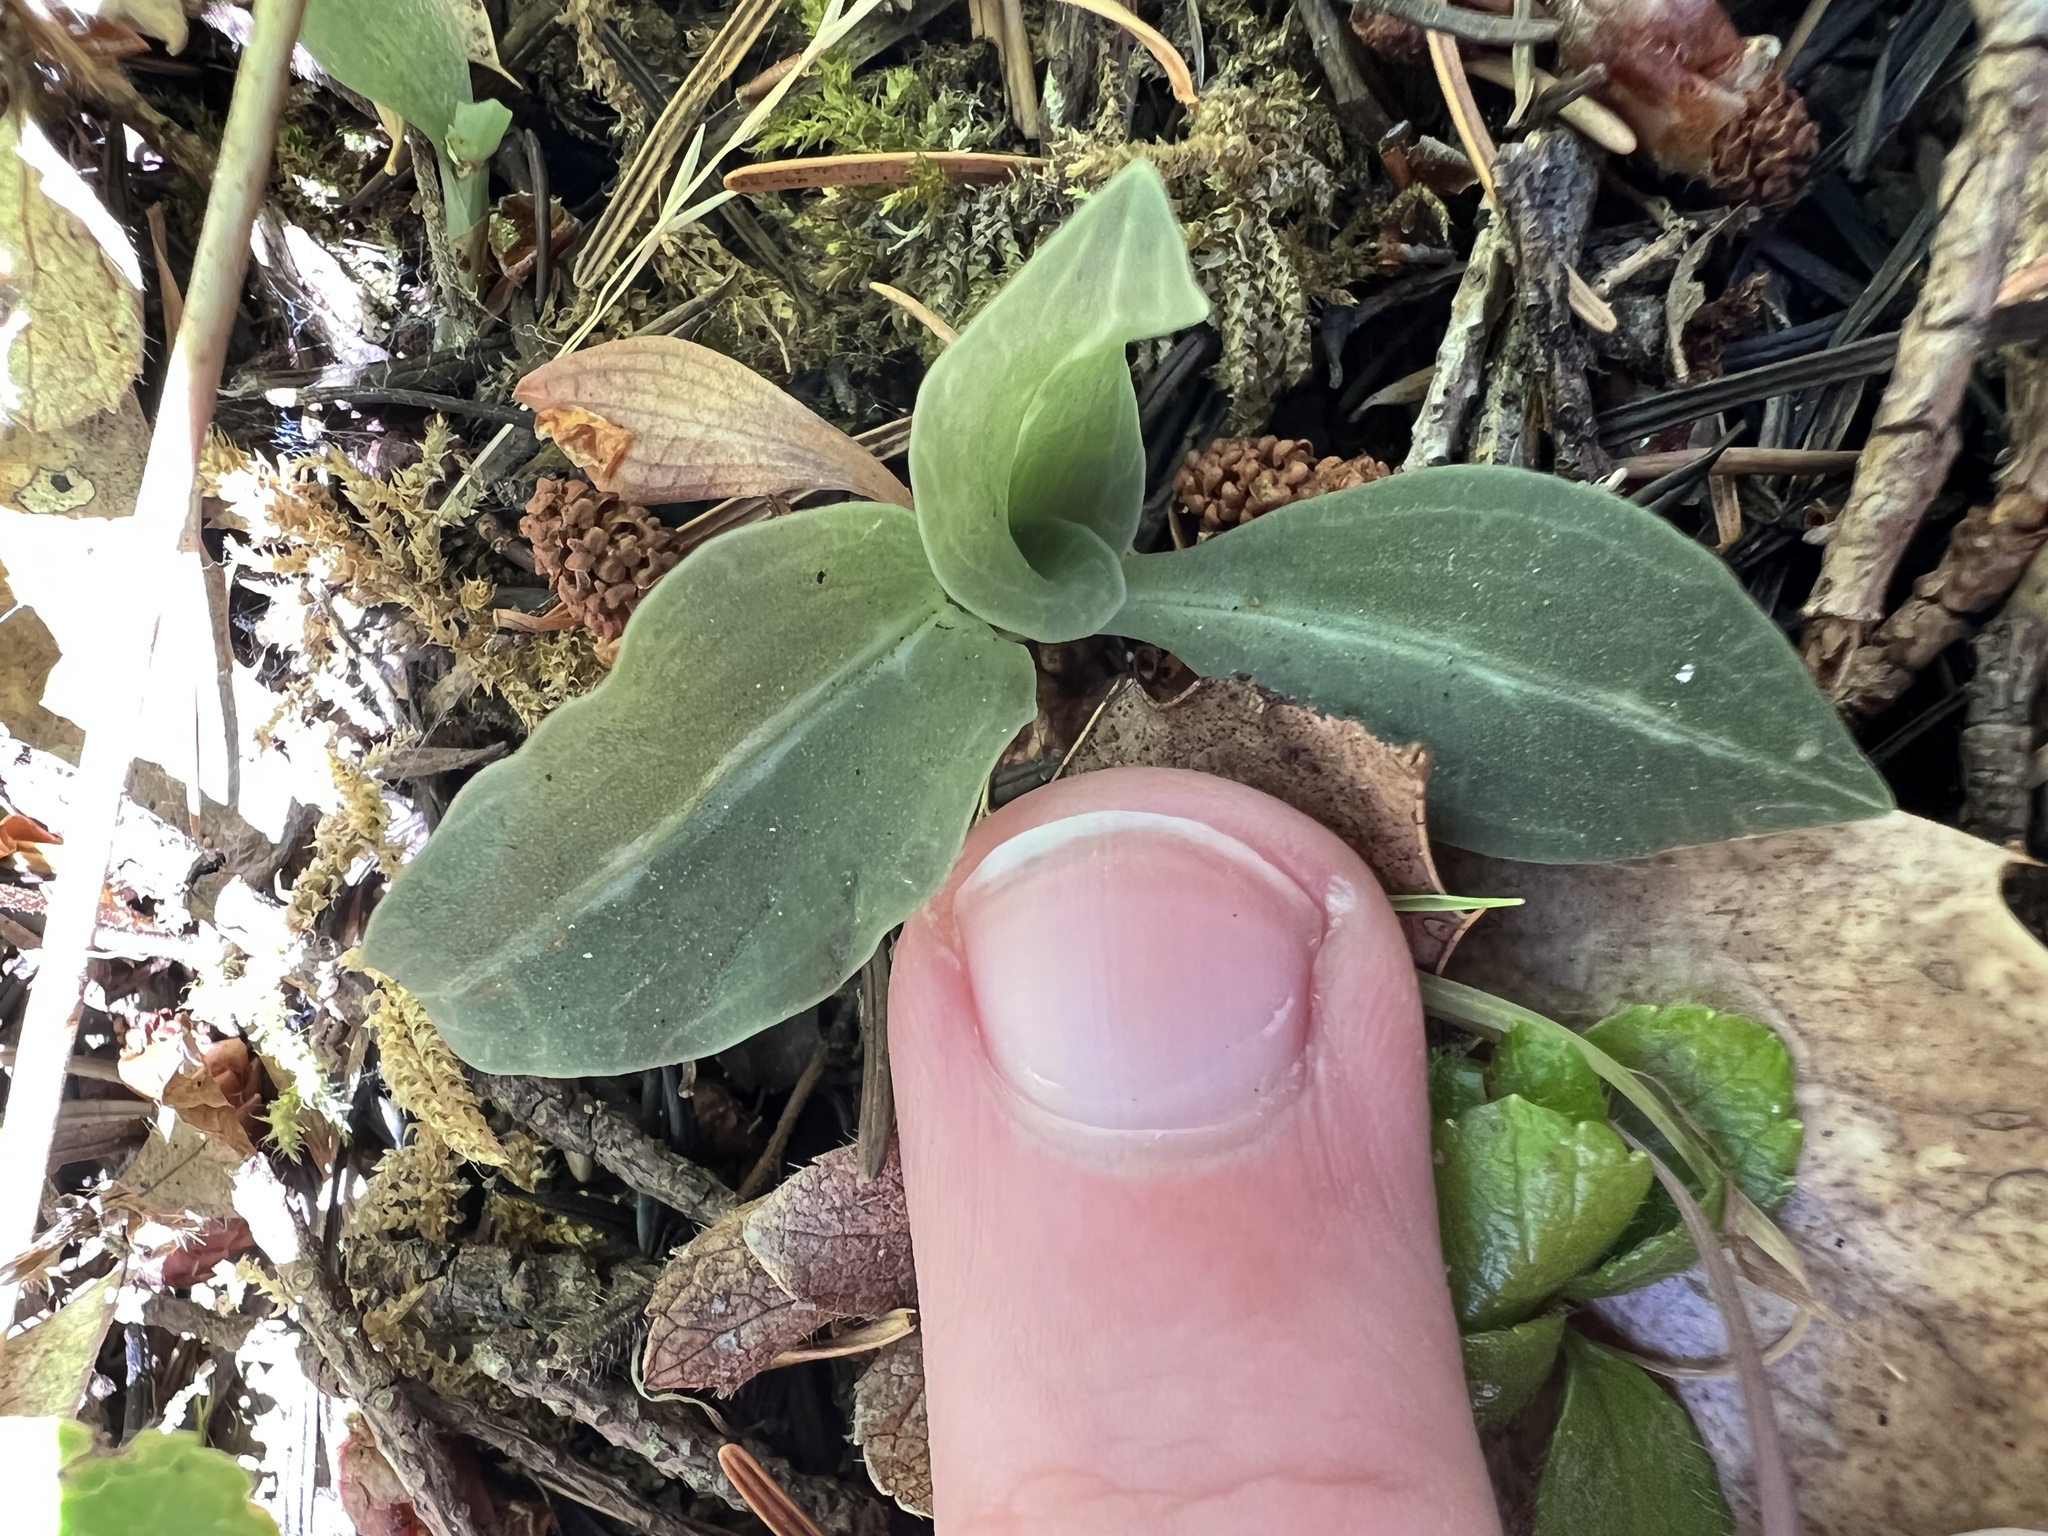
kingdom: Plantae
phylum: Tracheophyta
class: Liliopsida
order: Asparagales
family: Orchidaceae
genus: Goodyera
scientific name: Goodyera oblongifolia
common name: Giant rattlesnake-plantain
